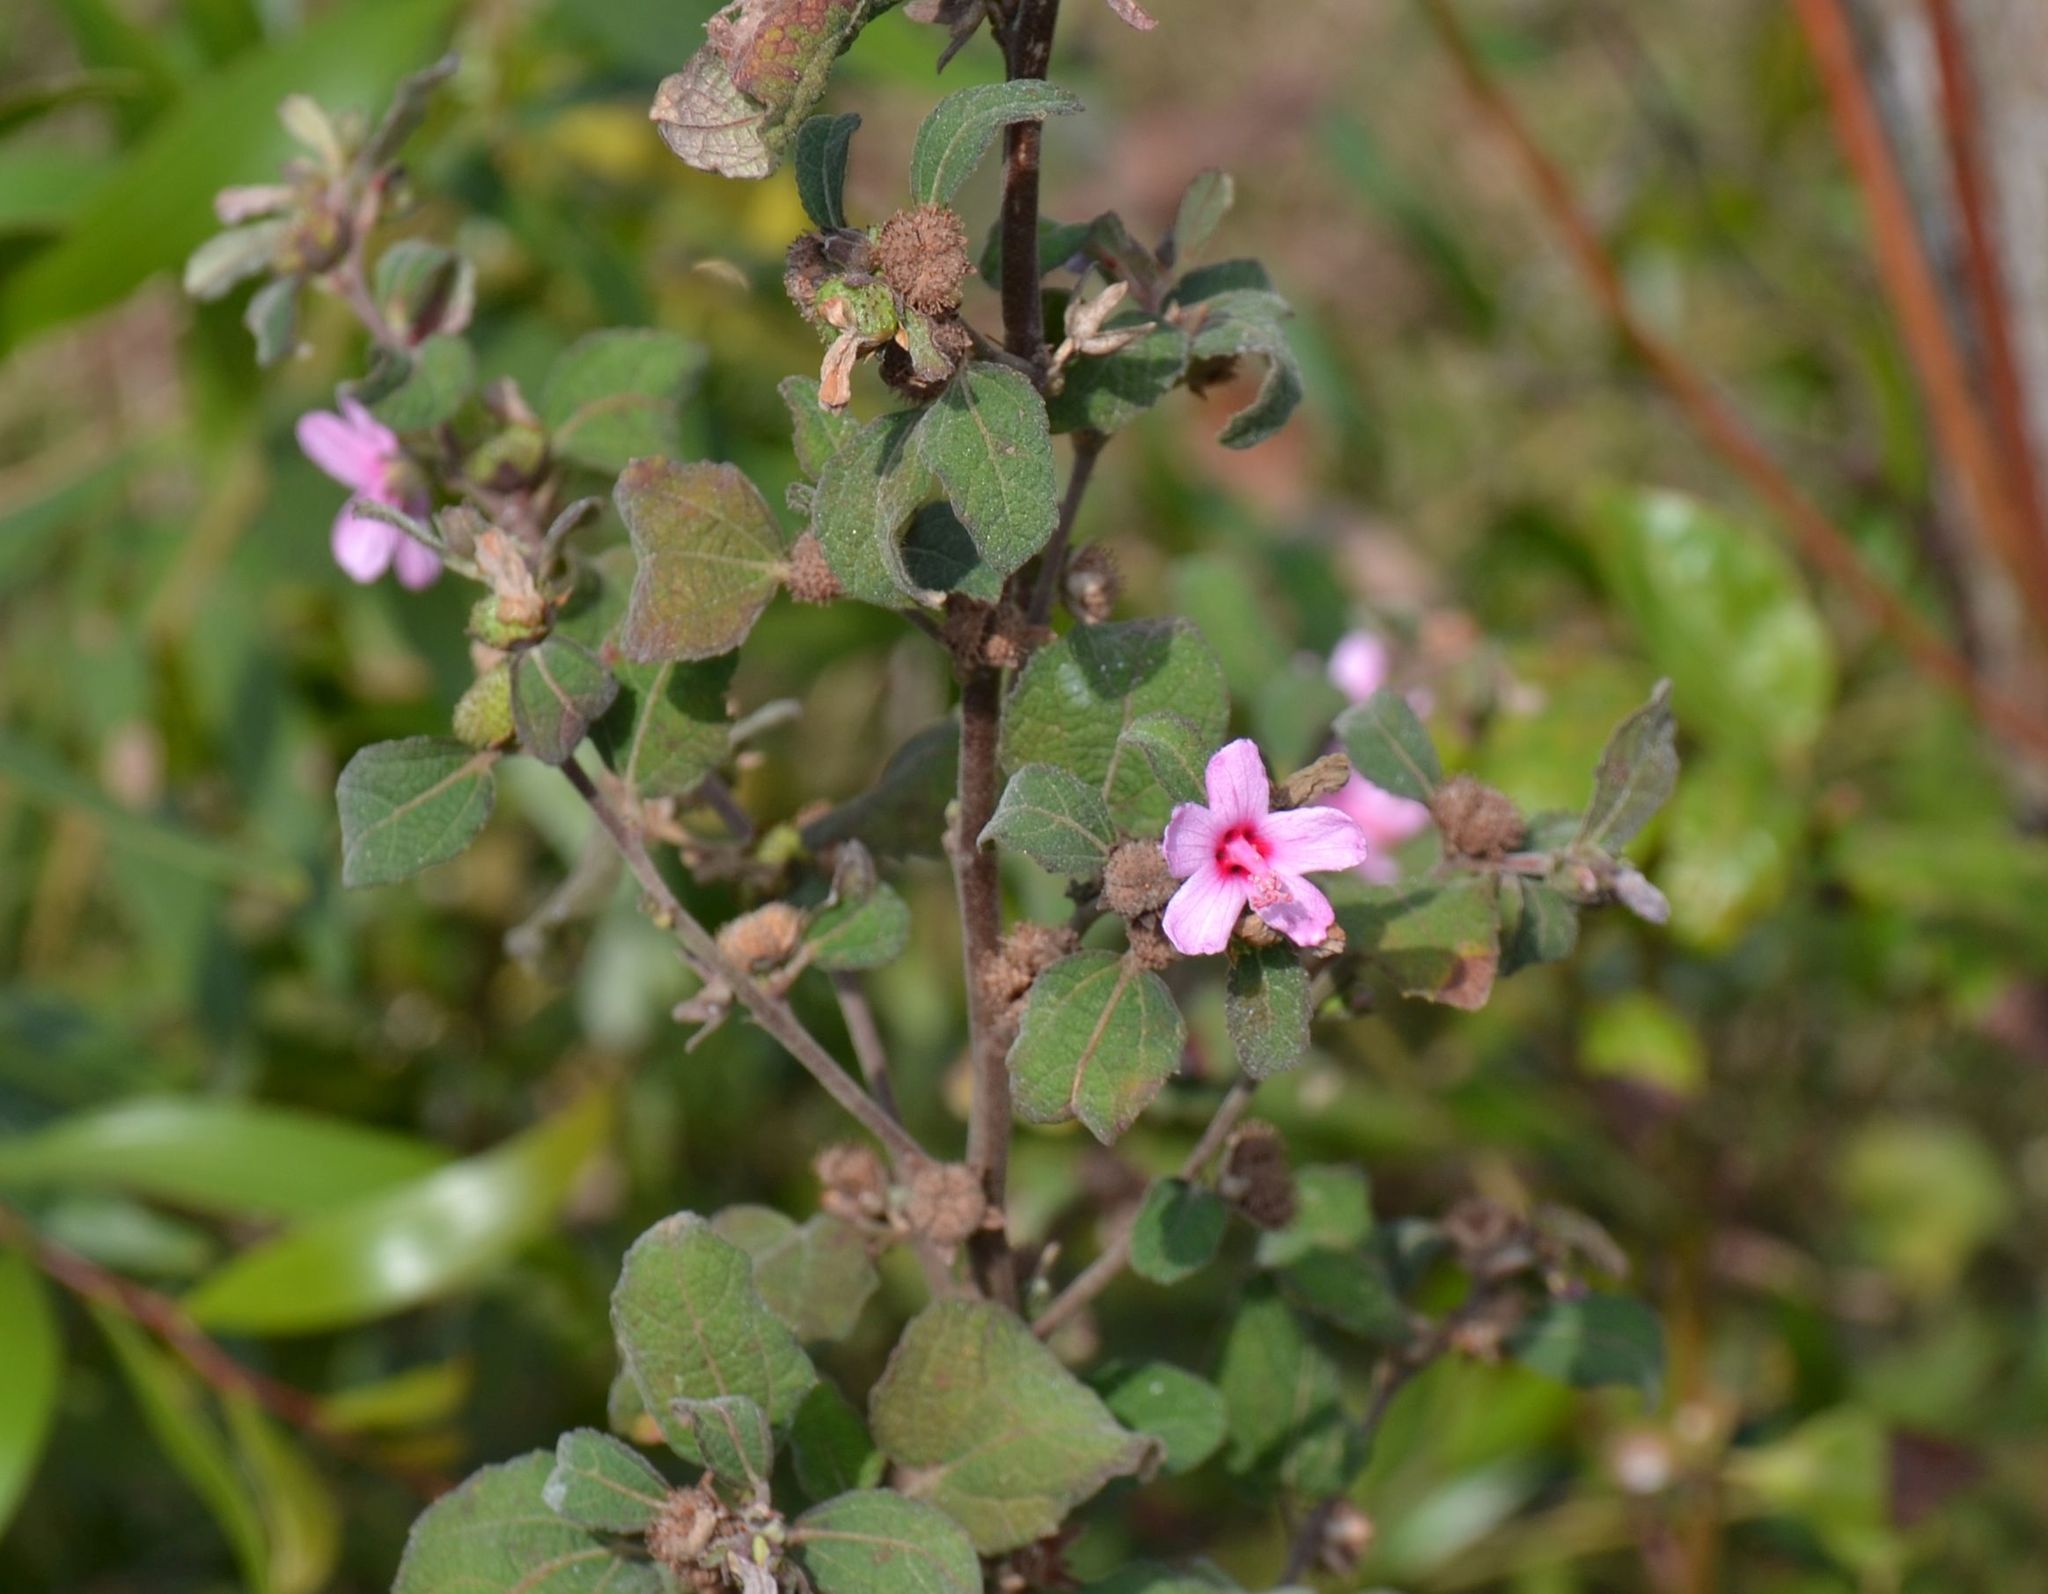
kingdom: Plantae
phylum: Tracheophyta
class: Magnoliopsida
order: Malvales
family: Malvaceae
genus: Urena
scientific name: Urena lobata
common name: Caesarweed
